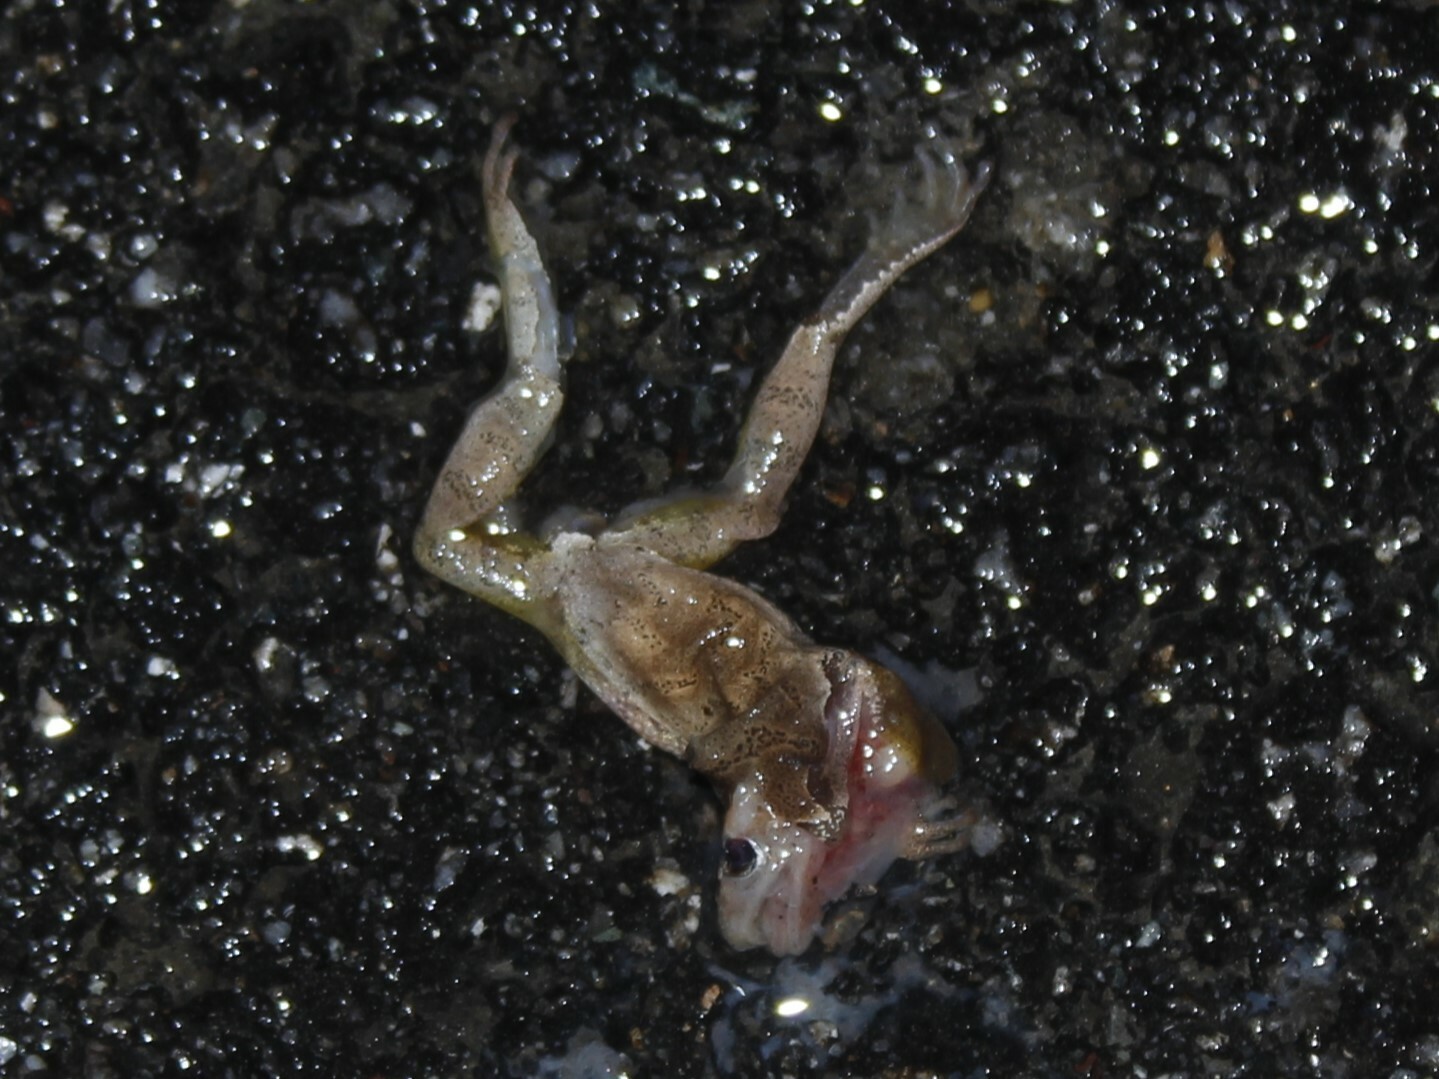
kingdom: Animalia
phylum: Chordata
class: Amphibia
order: Anura
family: Hylidae
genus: Pseudacris
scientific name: Pseudacris crucifer
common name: Spring peeper
